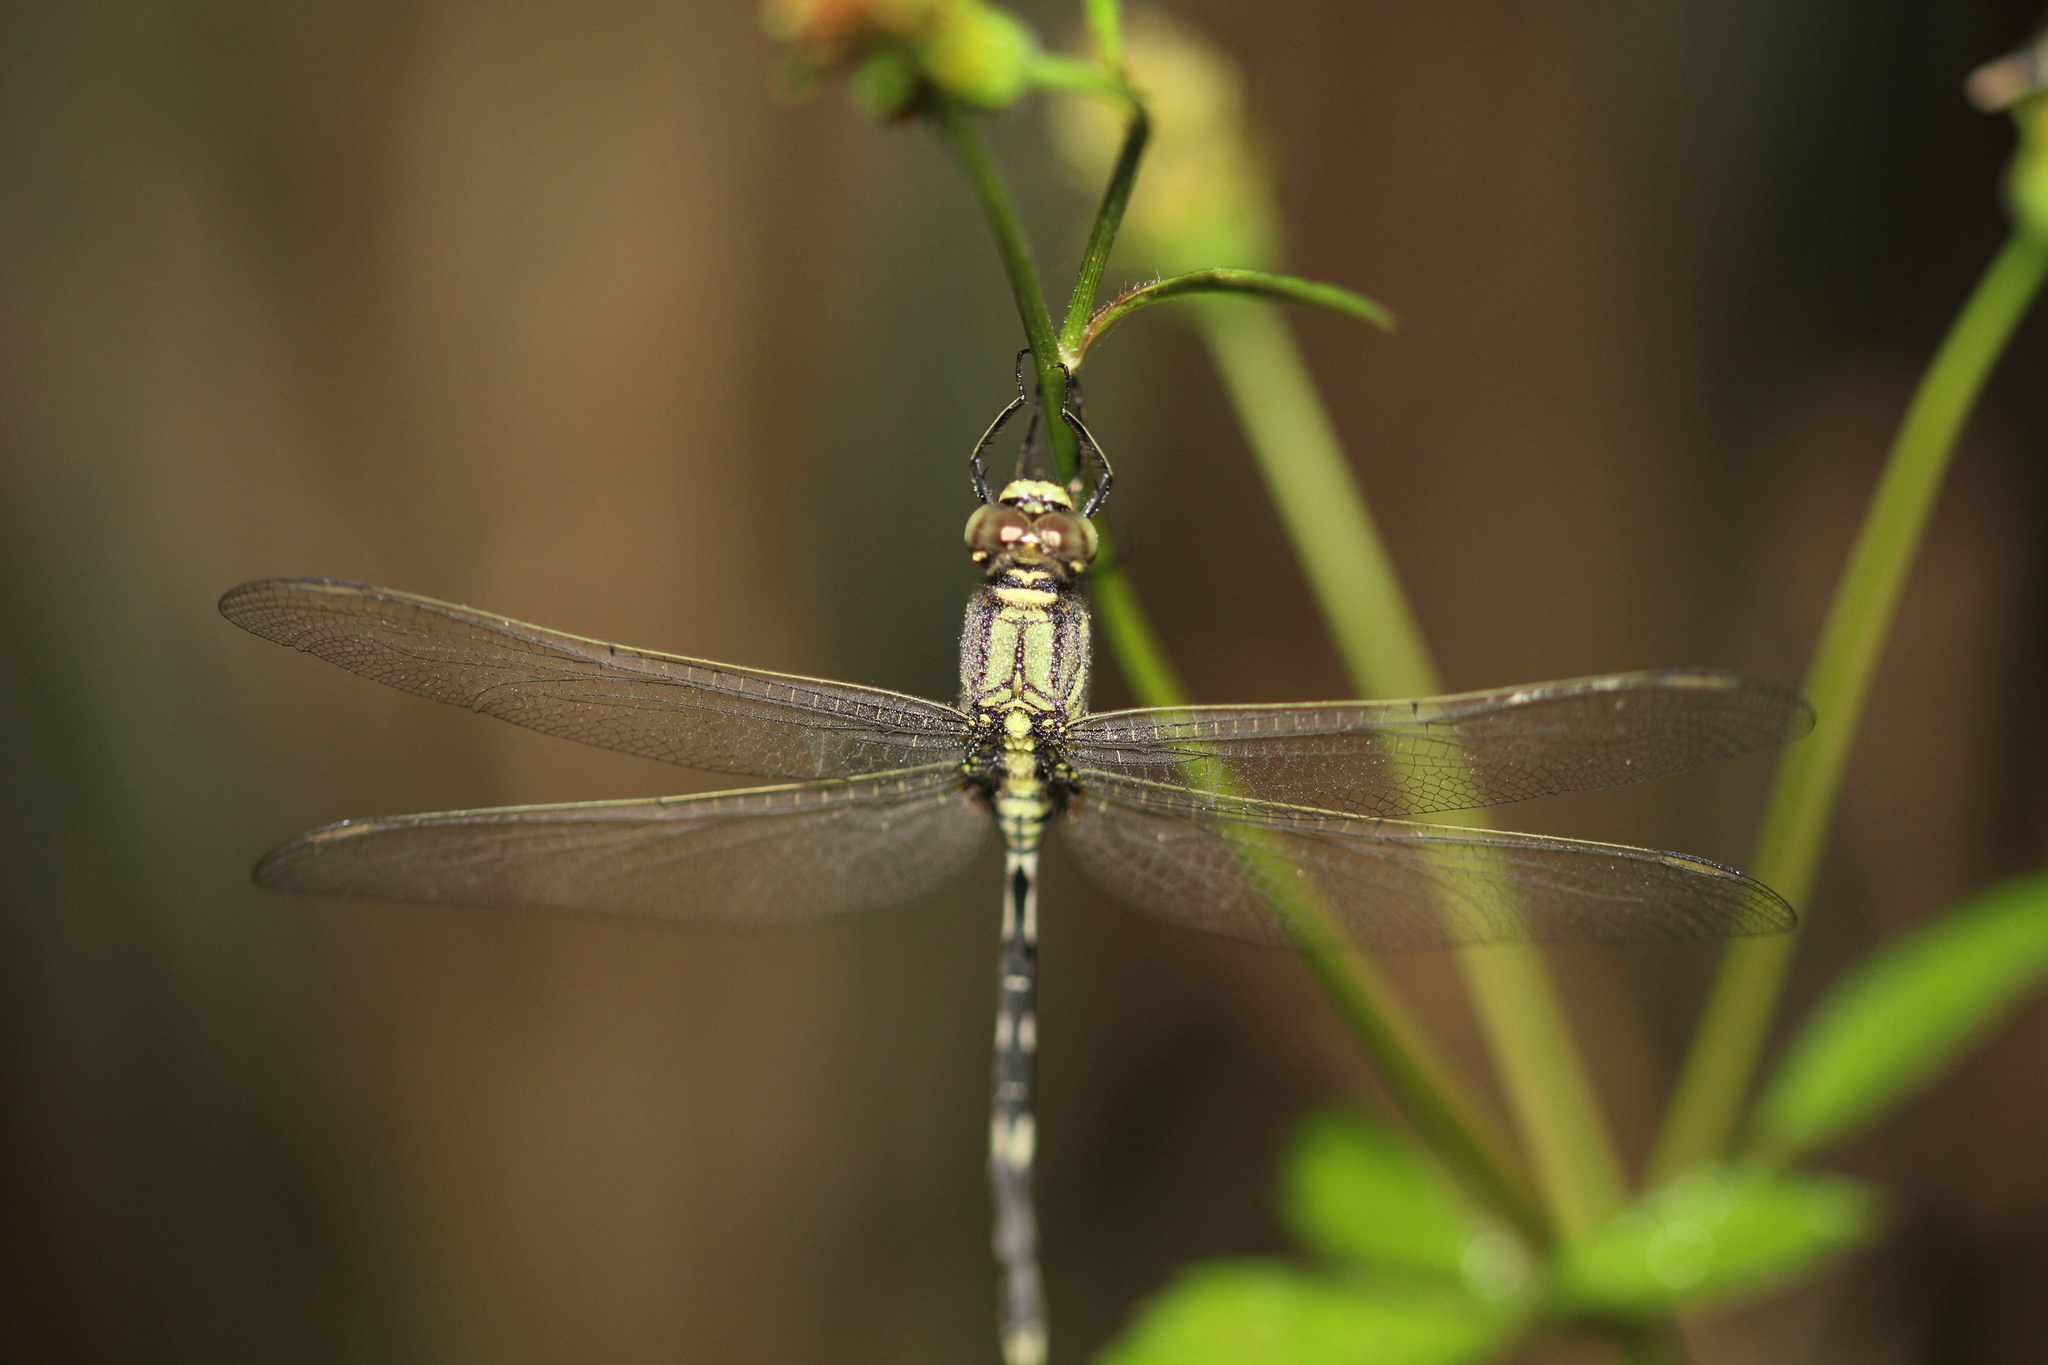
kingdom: Animalia
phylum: Arthropoda
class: Insecta
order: Odonata
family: Libellulidae
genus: Orthetrum
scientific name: Orthetrum sabina
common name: Slender skimmer
